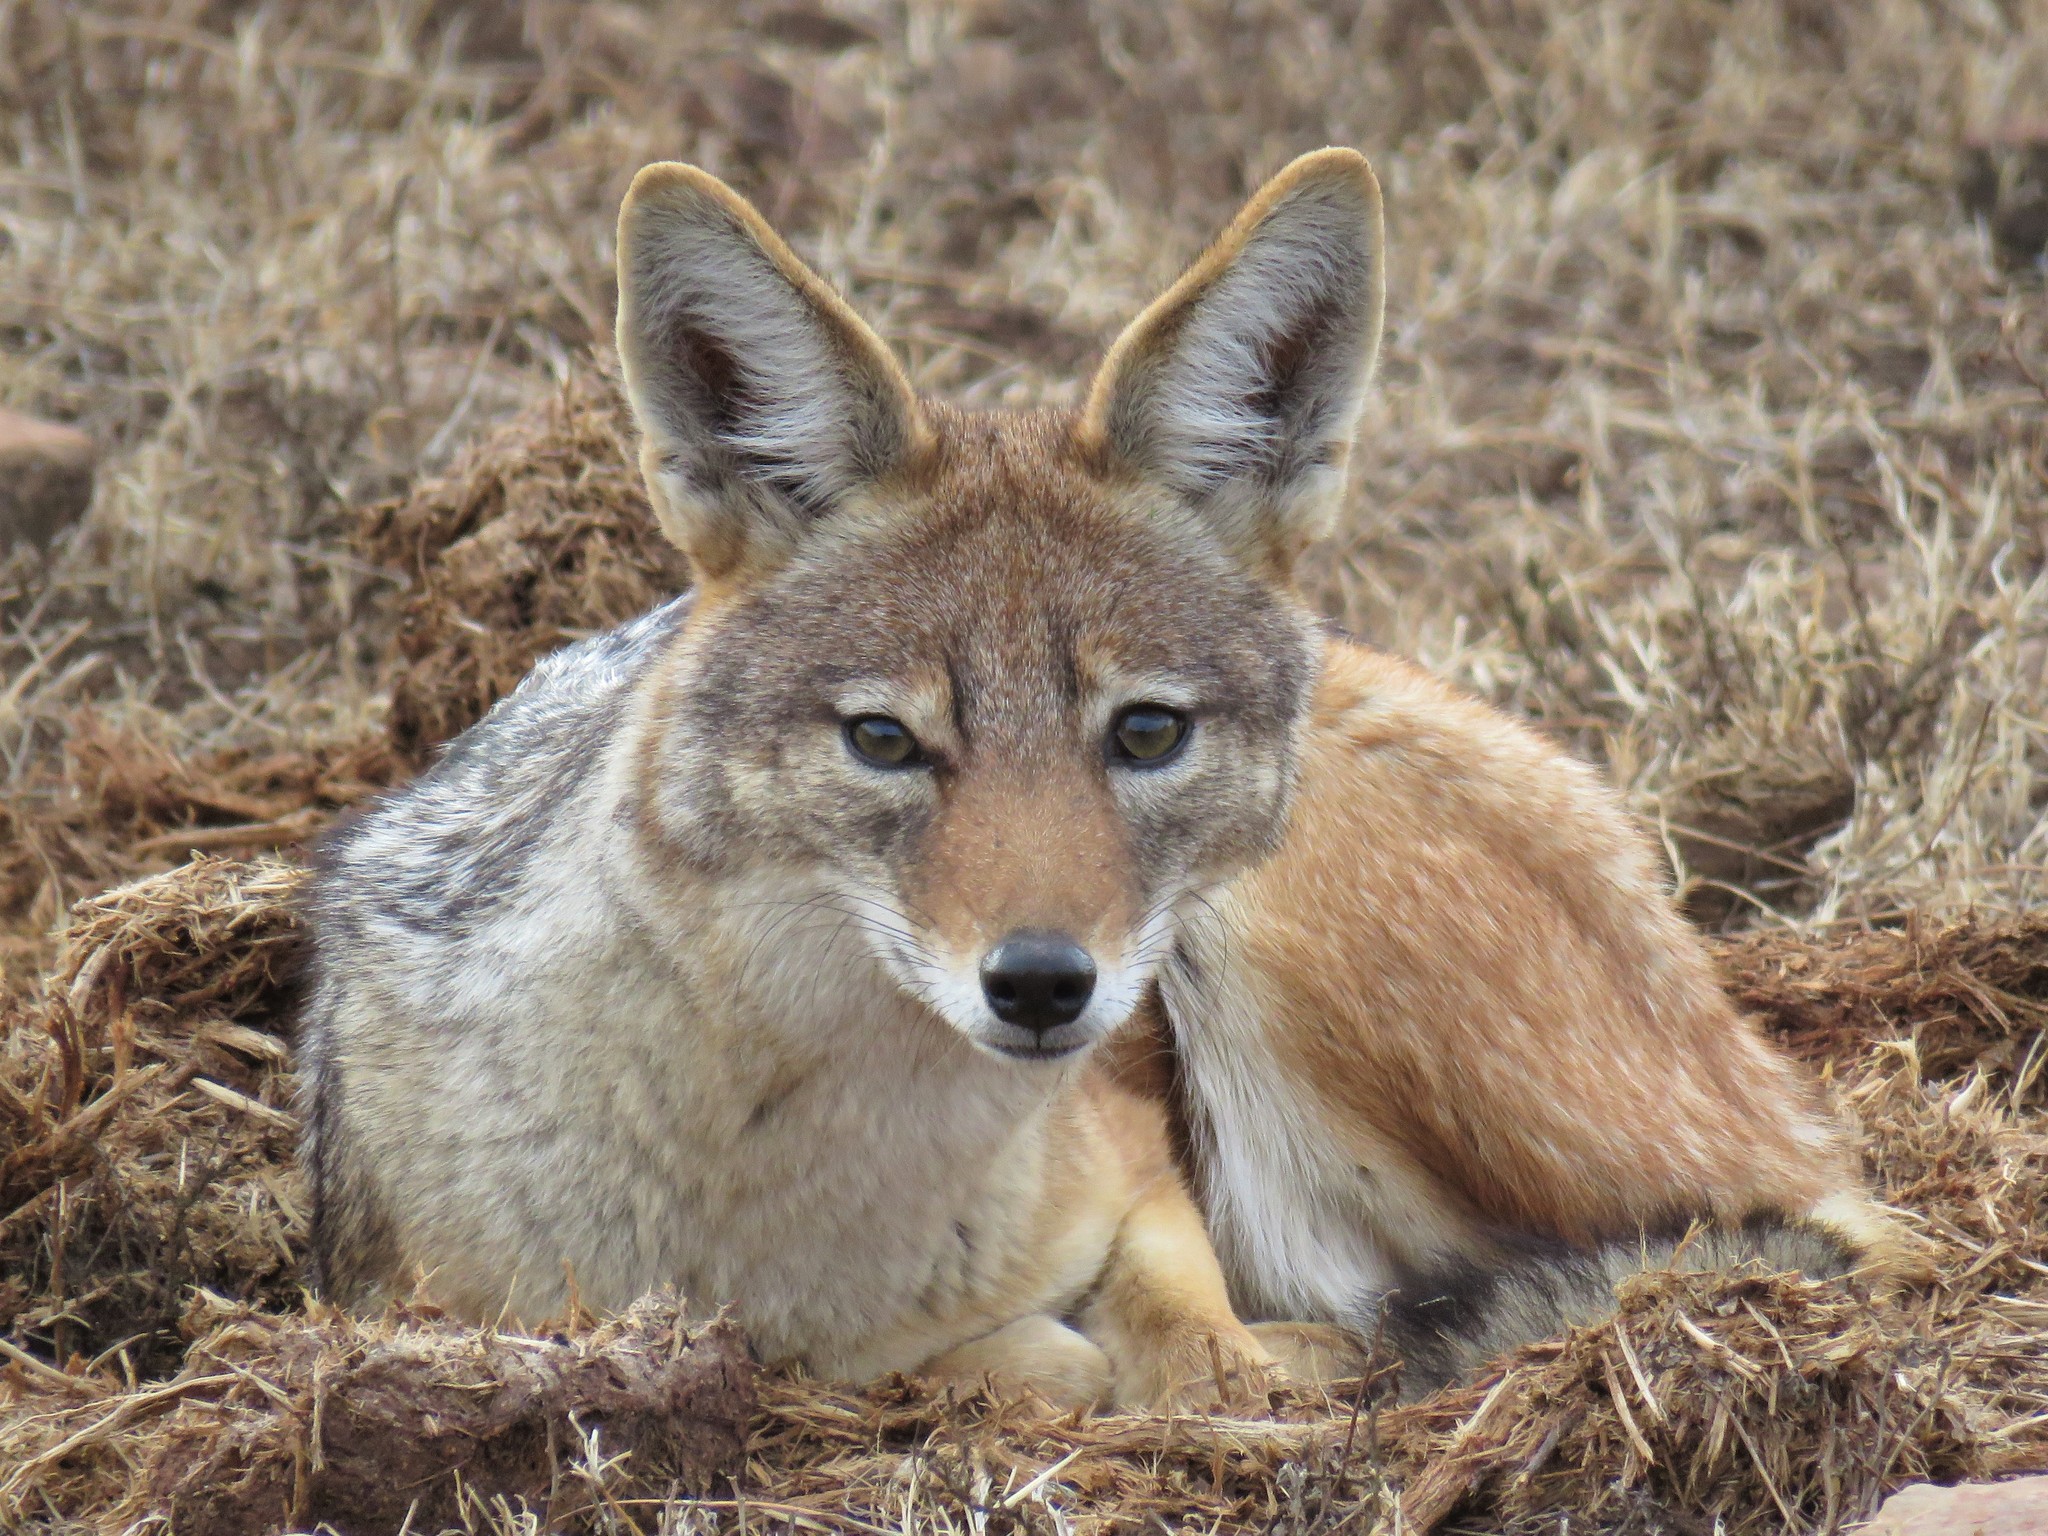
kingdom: Animalia
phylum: Chordata
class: Mammalia
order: Carnivora
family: Canidae
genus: Lupulella
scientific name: Lupulella
